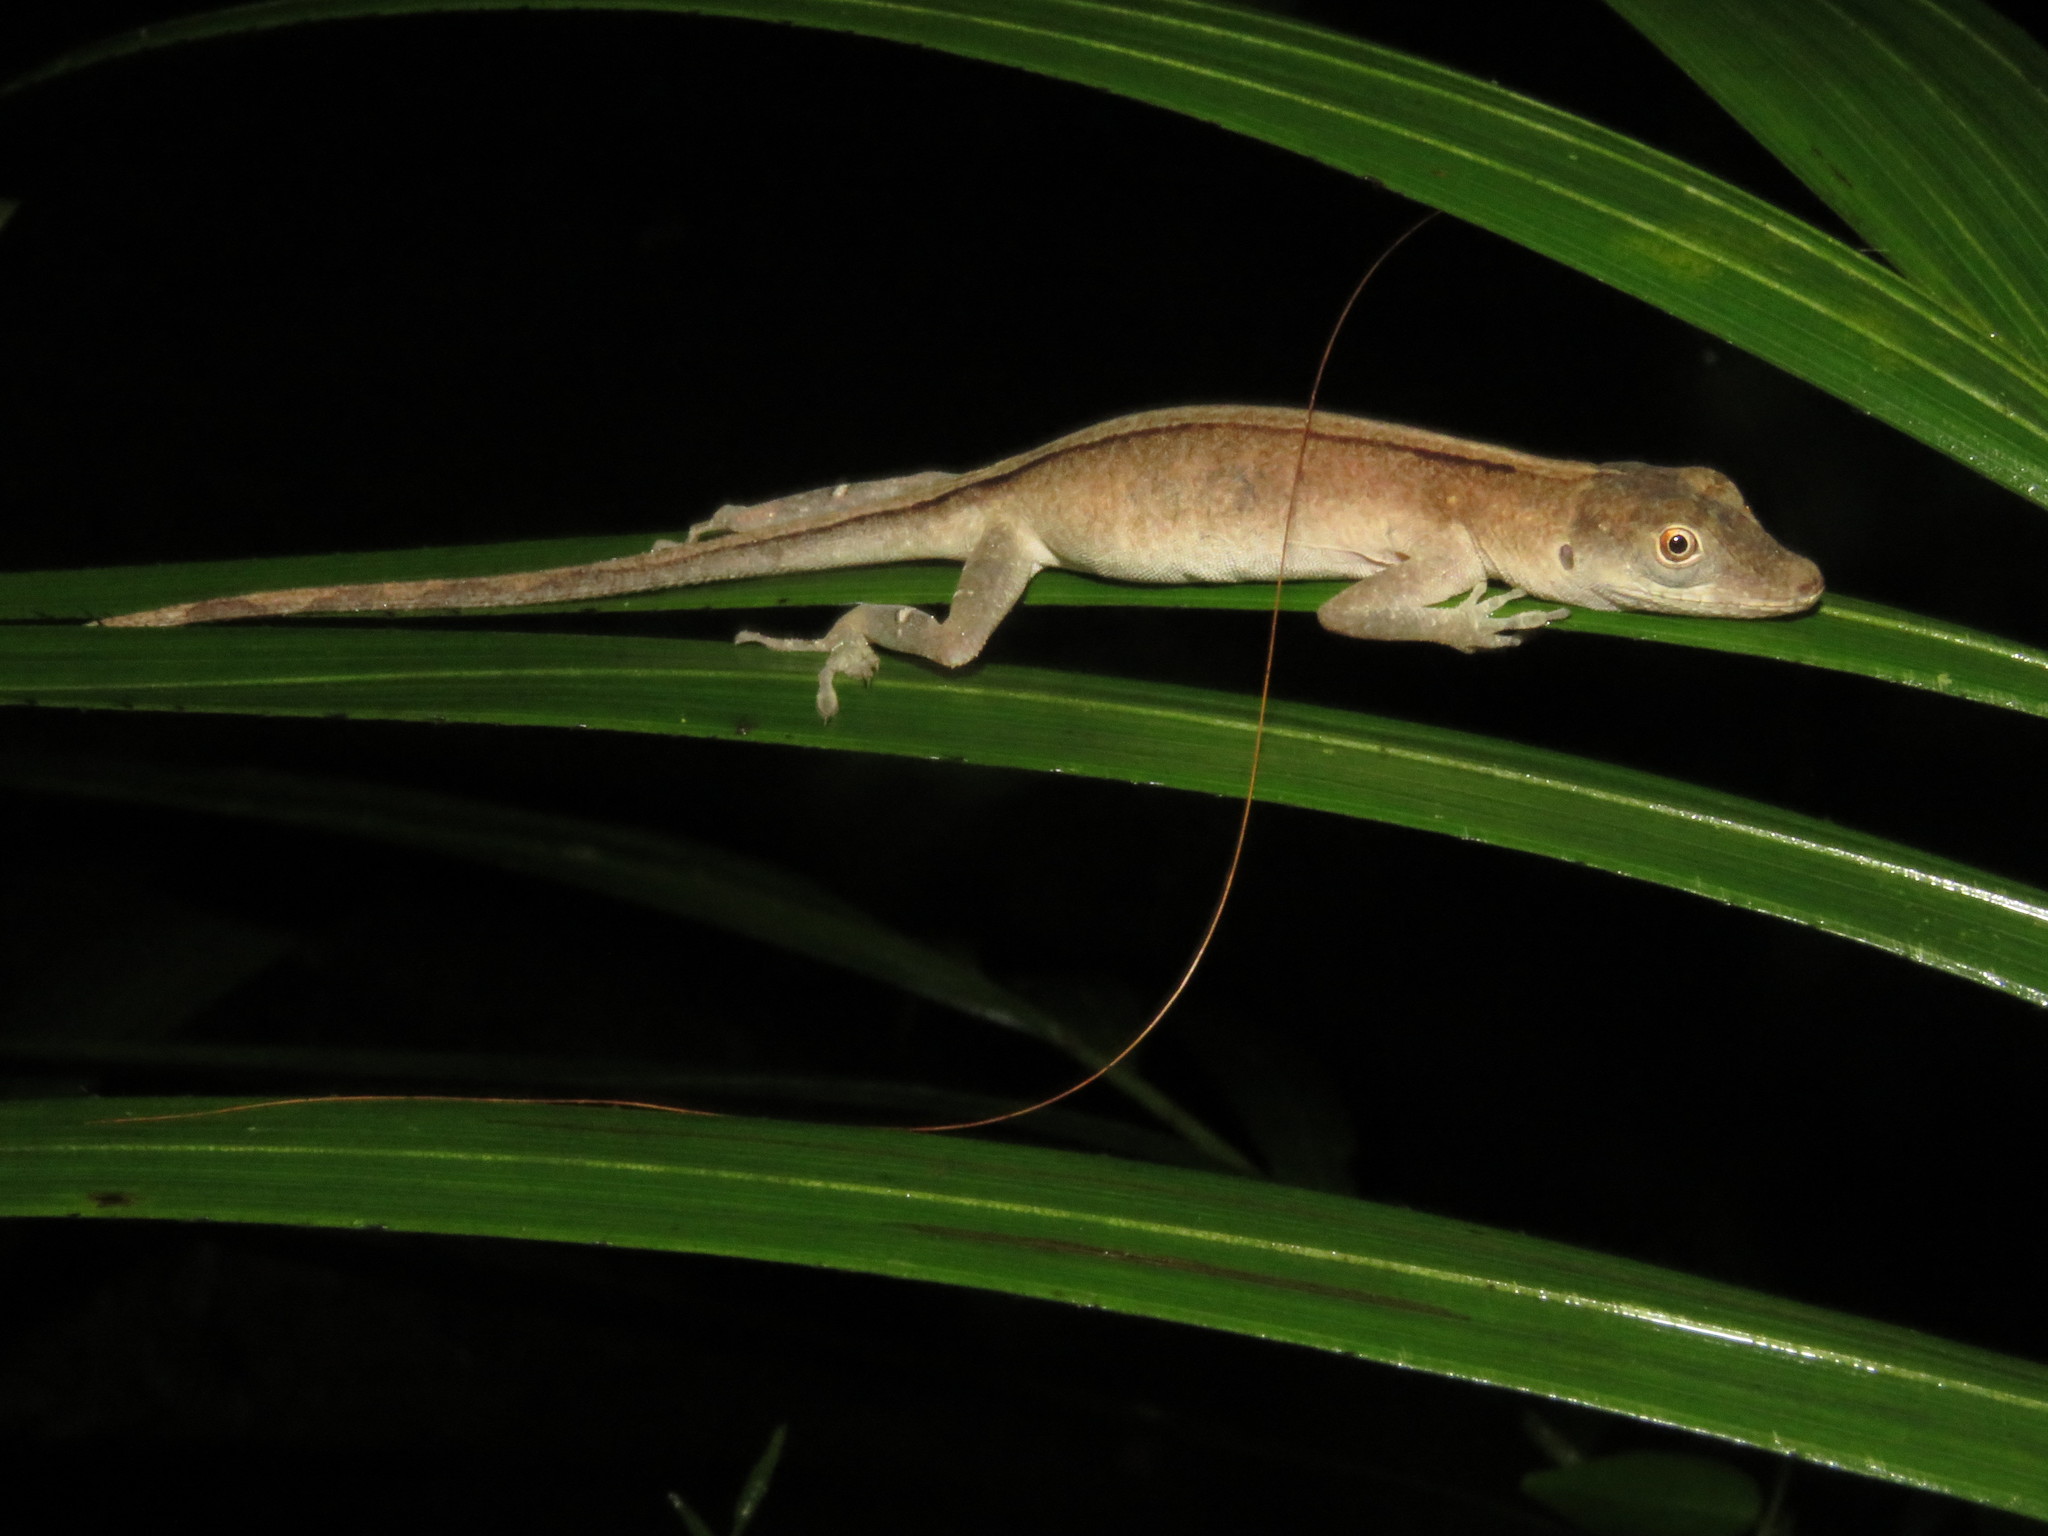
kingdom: Animalia
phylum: Chordata
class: Squamata
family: Dactyloidae
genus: Anolis
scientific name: Anolis fuscoauratus
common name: Brown-eared anole
